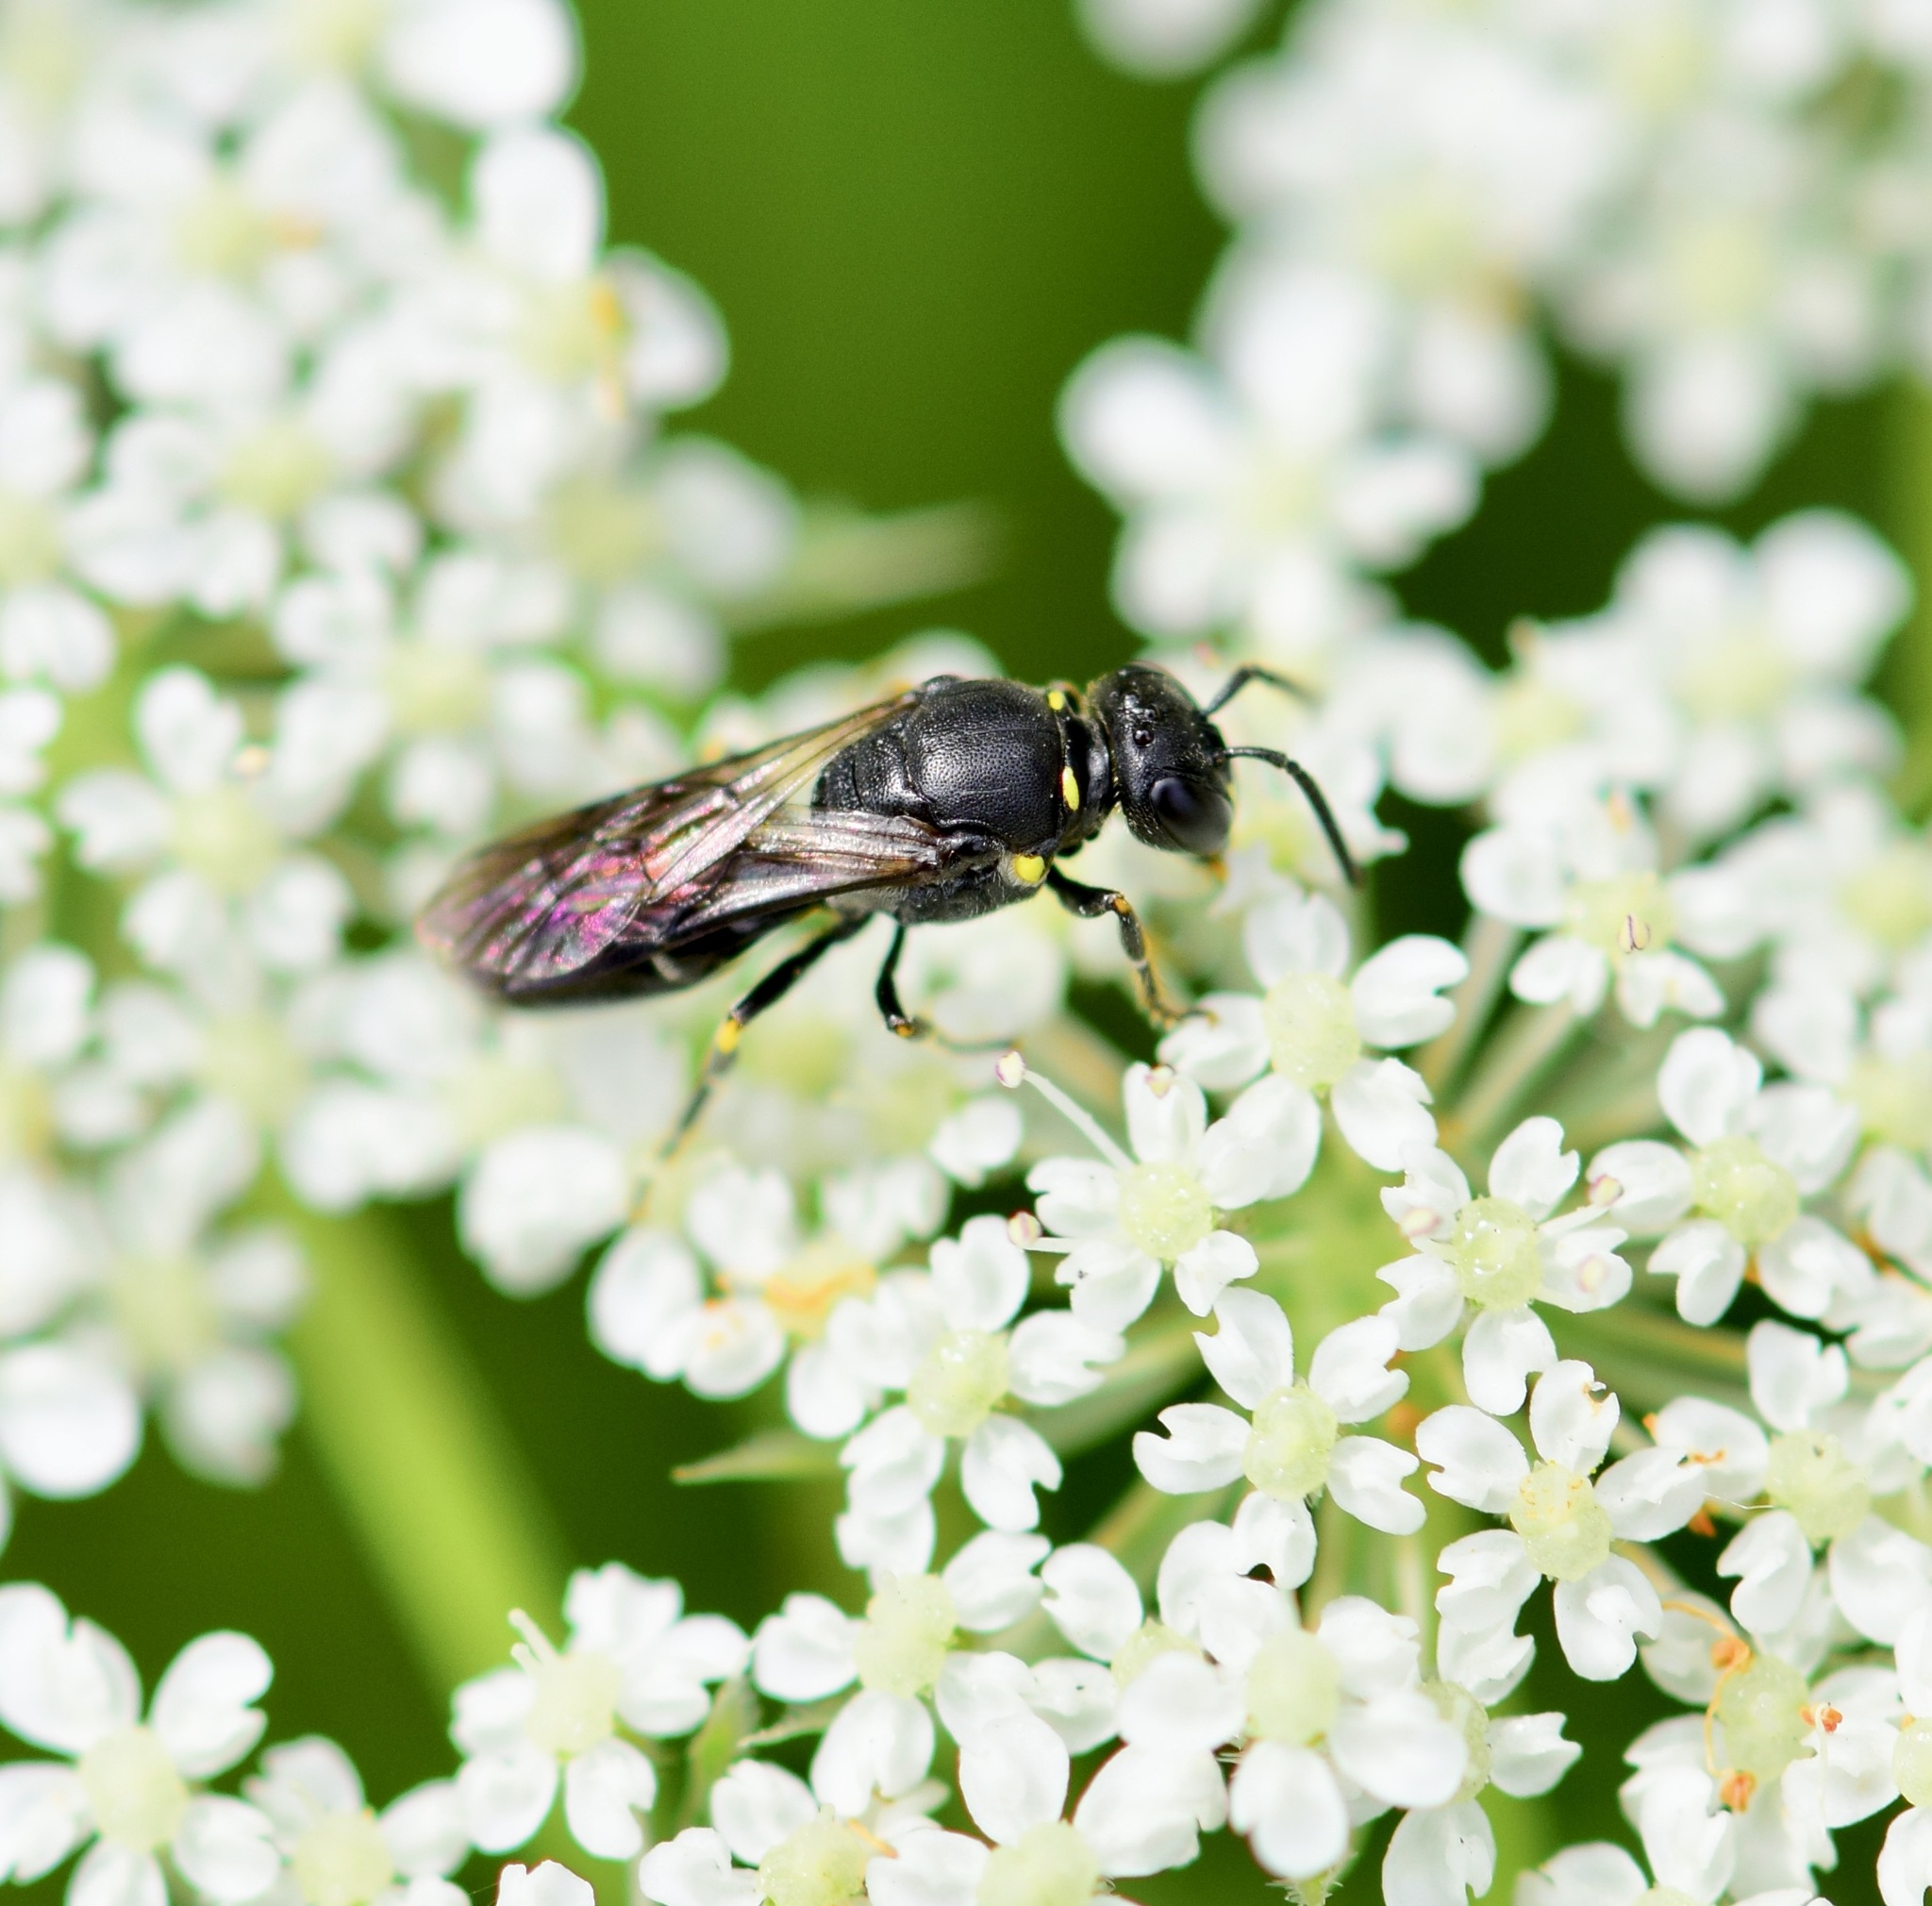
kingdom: Animalia
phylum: Arthropoda
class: Insecta
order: Hymenoptera
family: Colletidae
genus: Hylaeus
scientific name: Hylaeus modestus
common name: Yellow-faced bee
